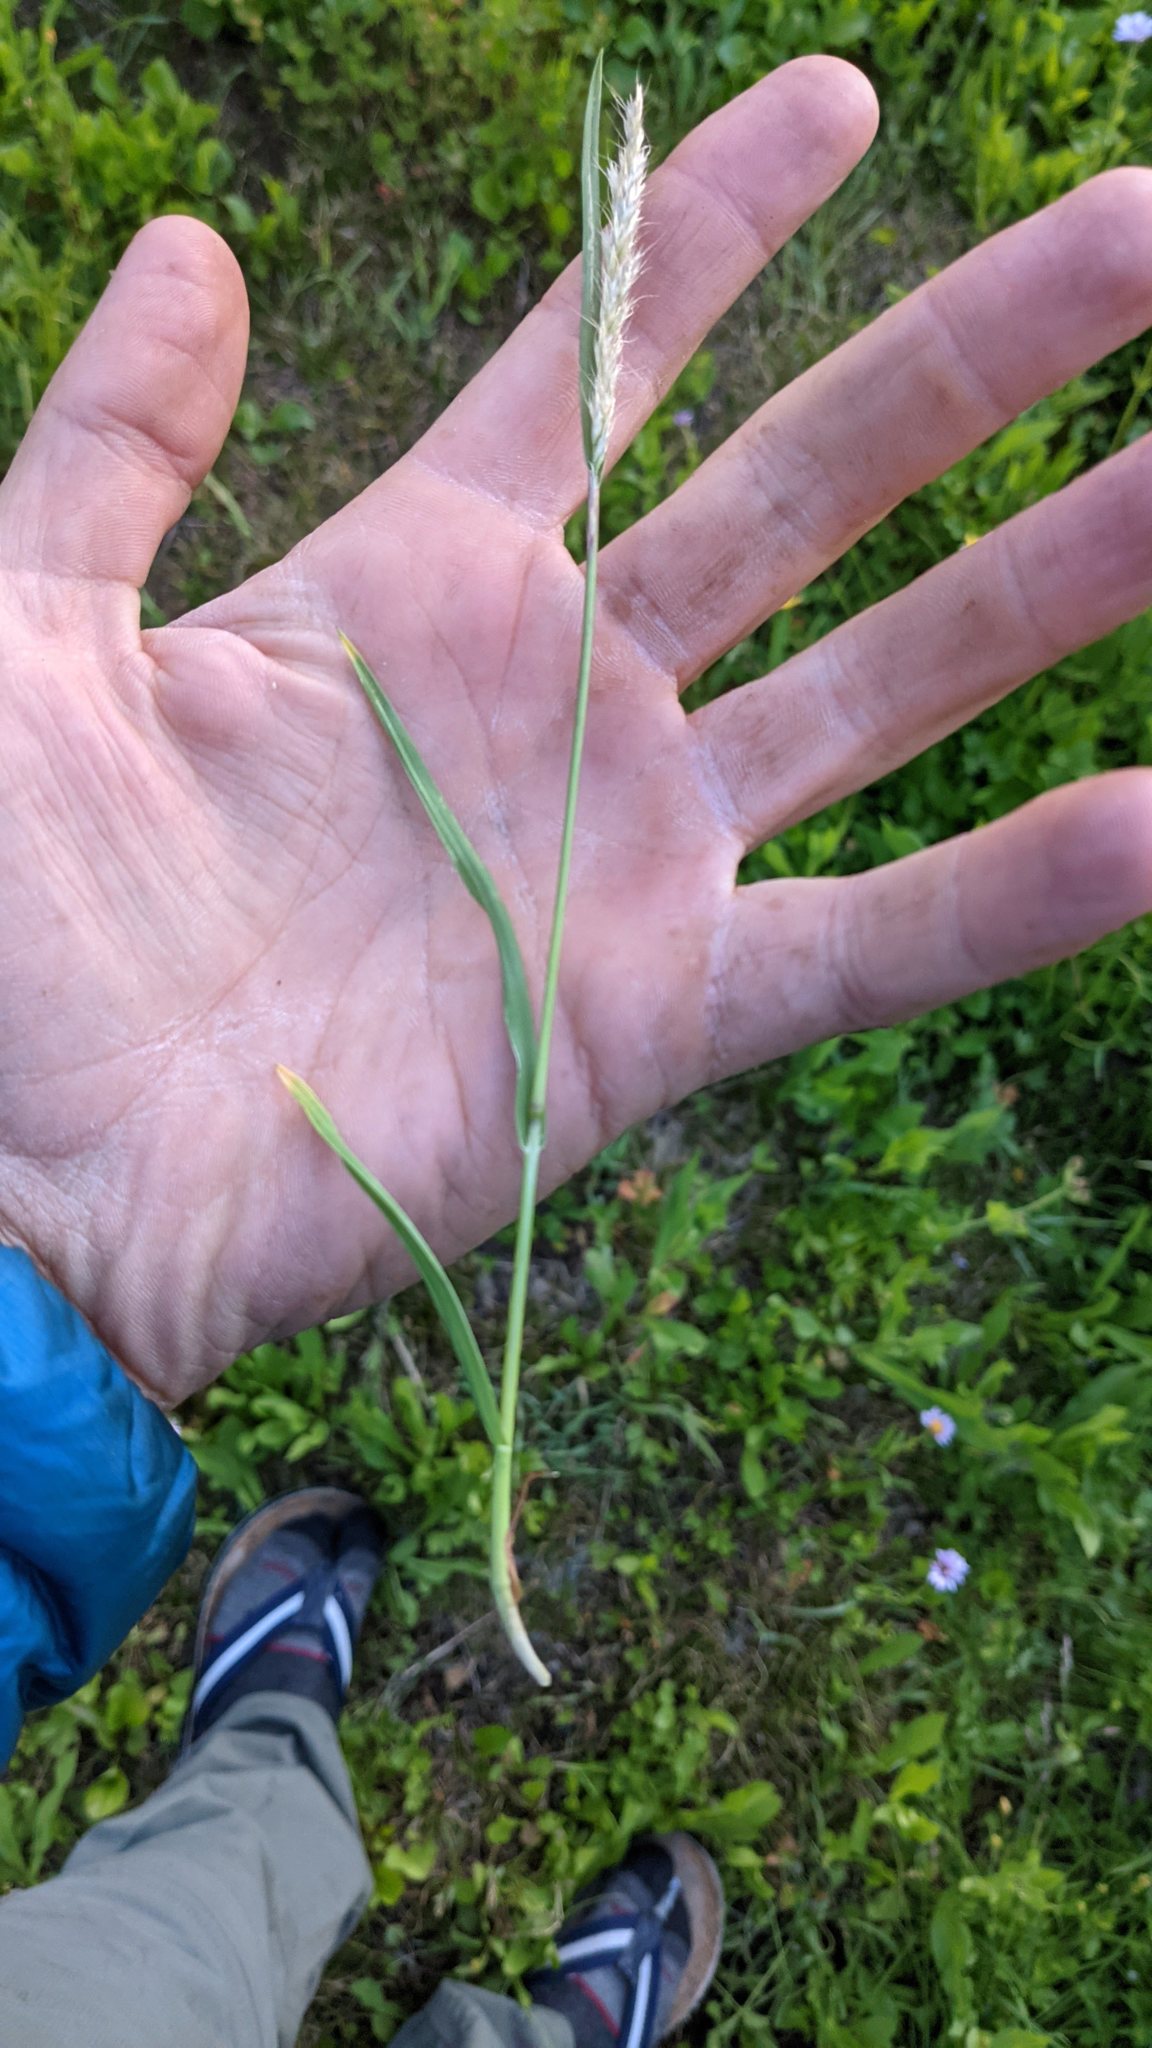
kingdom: Plantae
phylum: Tracheophyta
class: Liliopsida
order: Poales
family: Poaceae
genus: Koeleria
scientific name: Koeleria spicata
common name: Mountain trisetum
